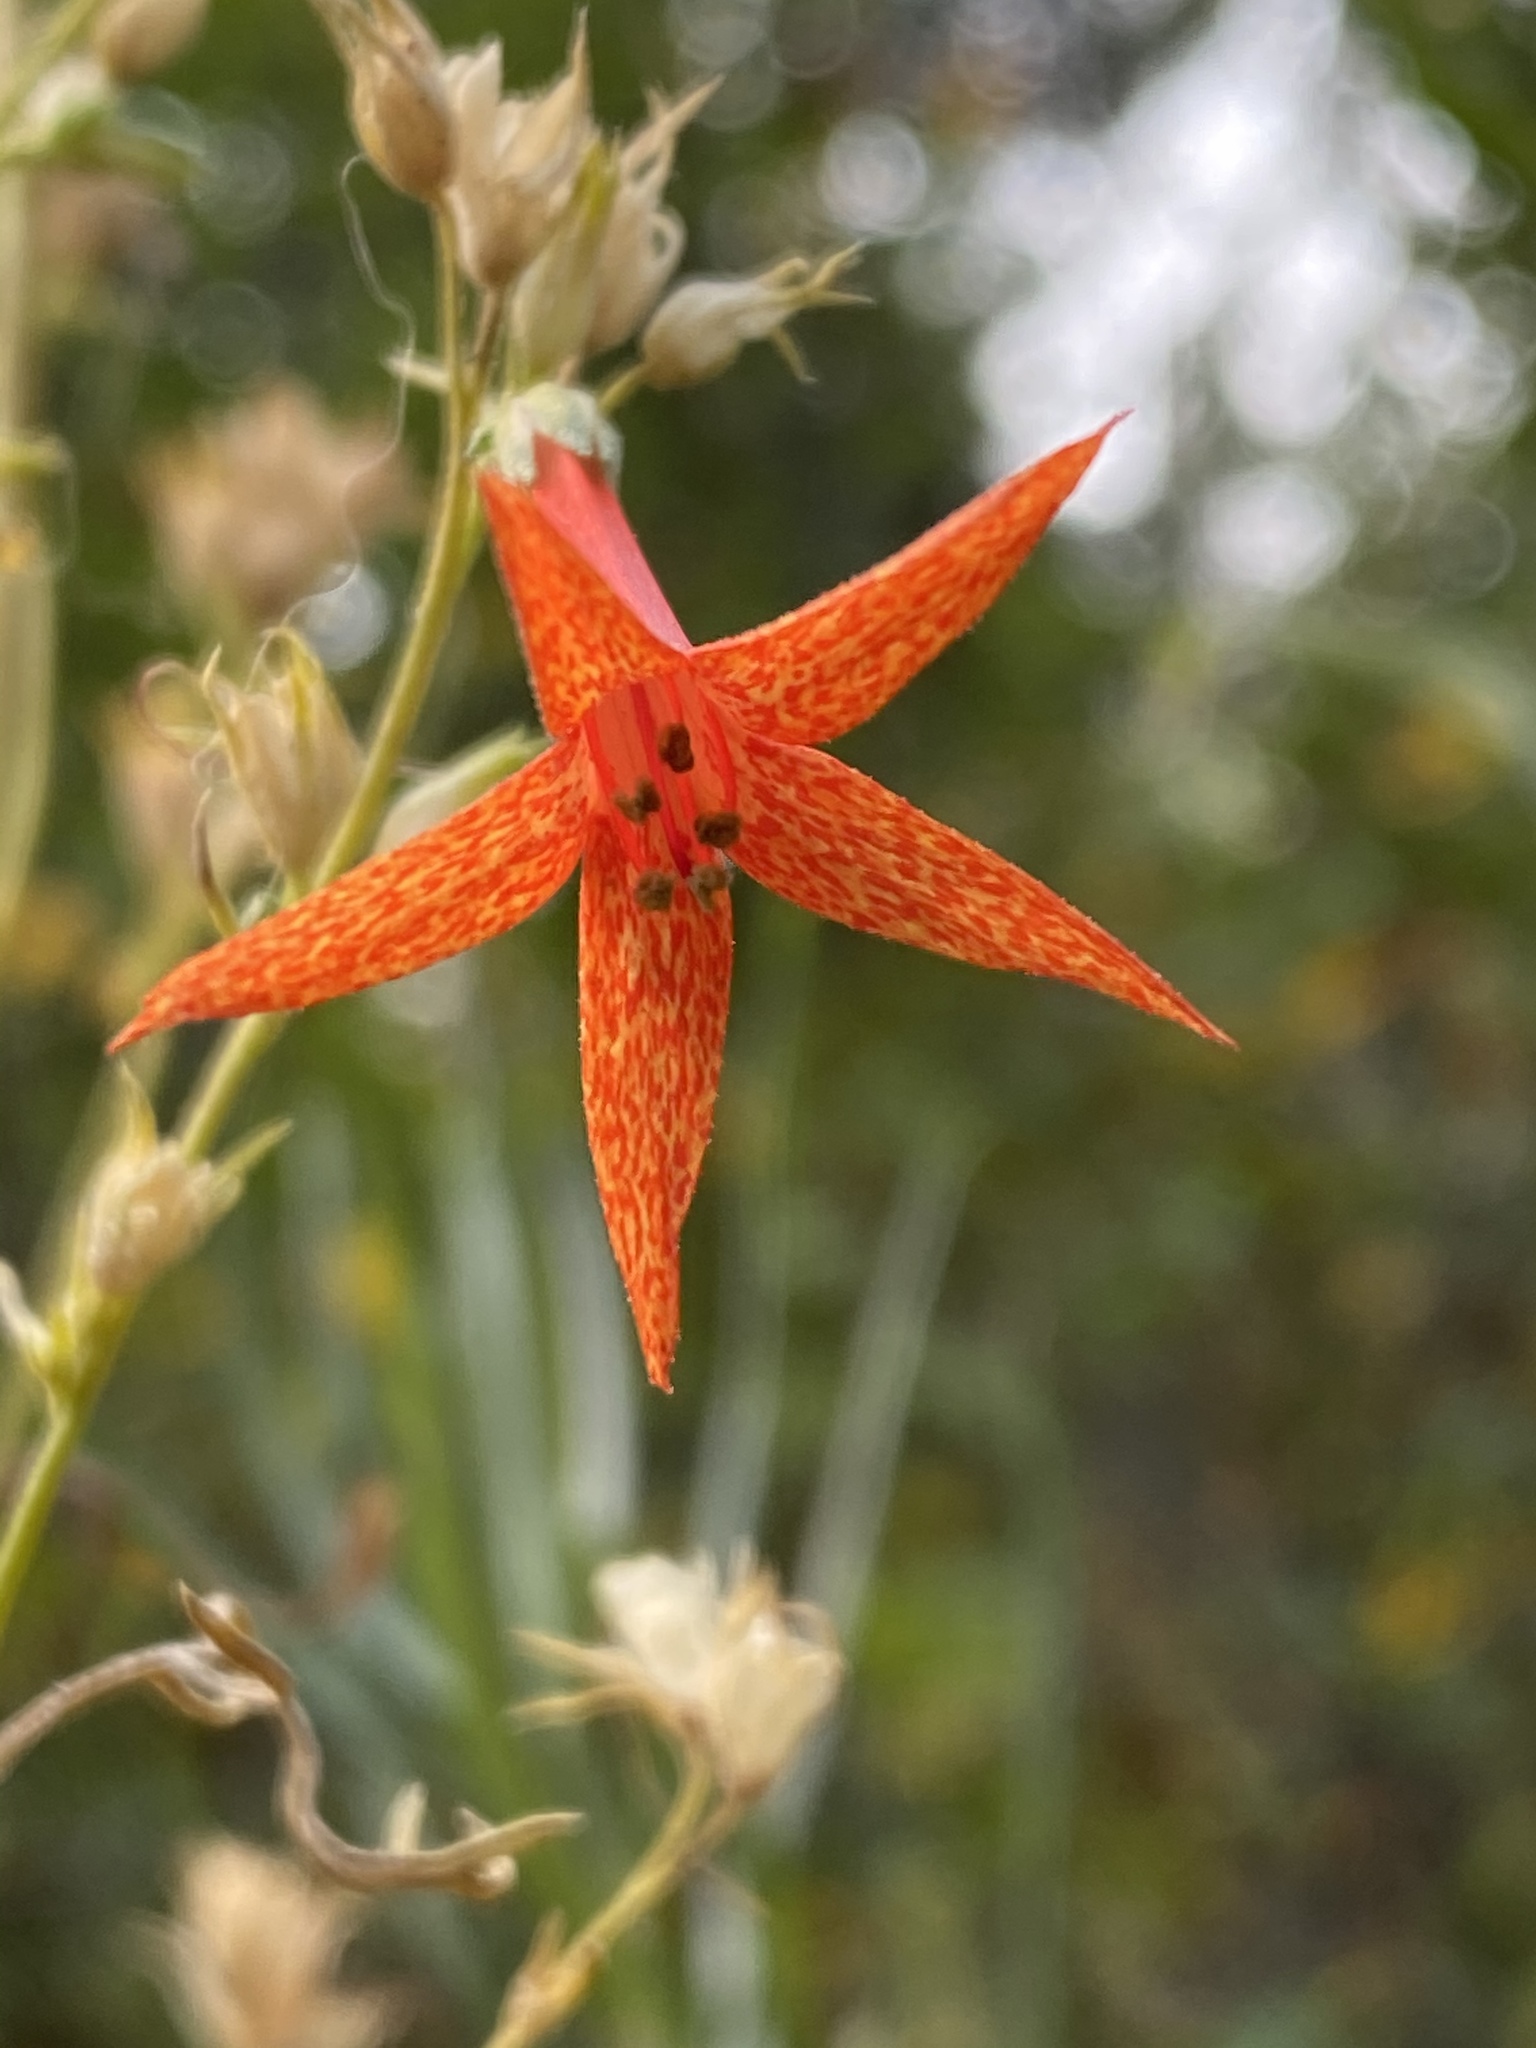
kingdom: Plantae
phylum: Tracheophyta
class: Magnoliopsida
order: Ericales
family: Polemoniaceae
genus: Ipomopsis
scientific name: Ipomopsis aggregata
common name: Scarlet gilia
